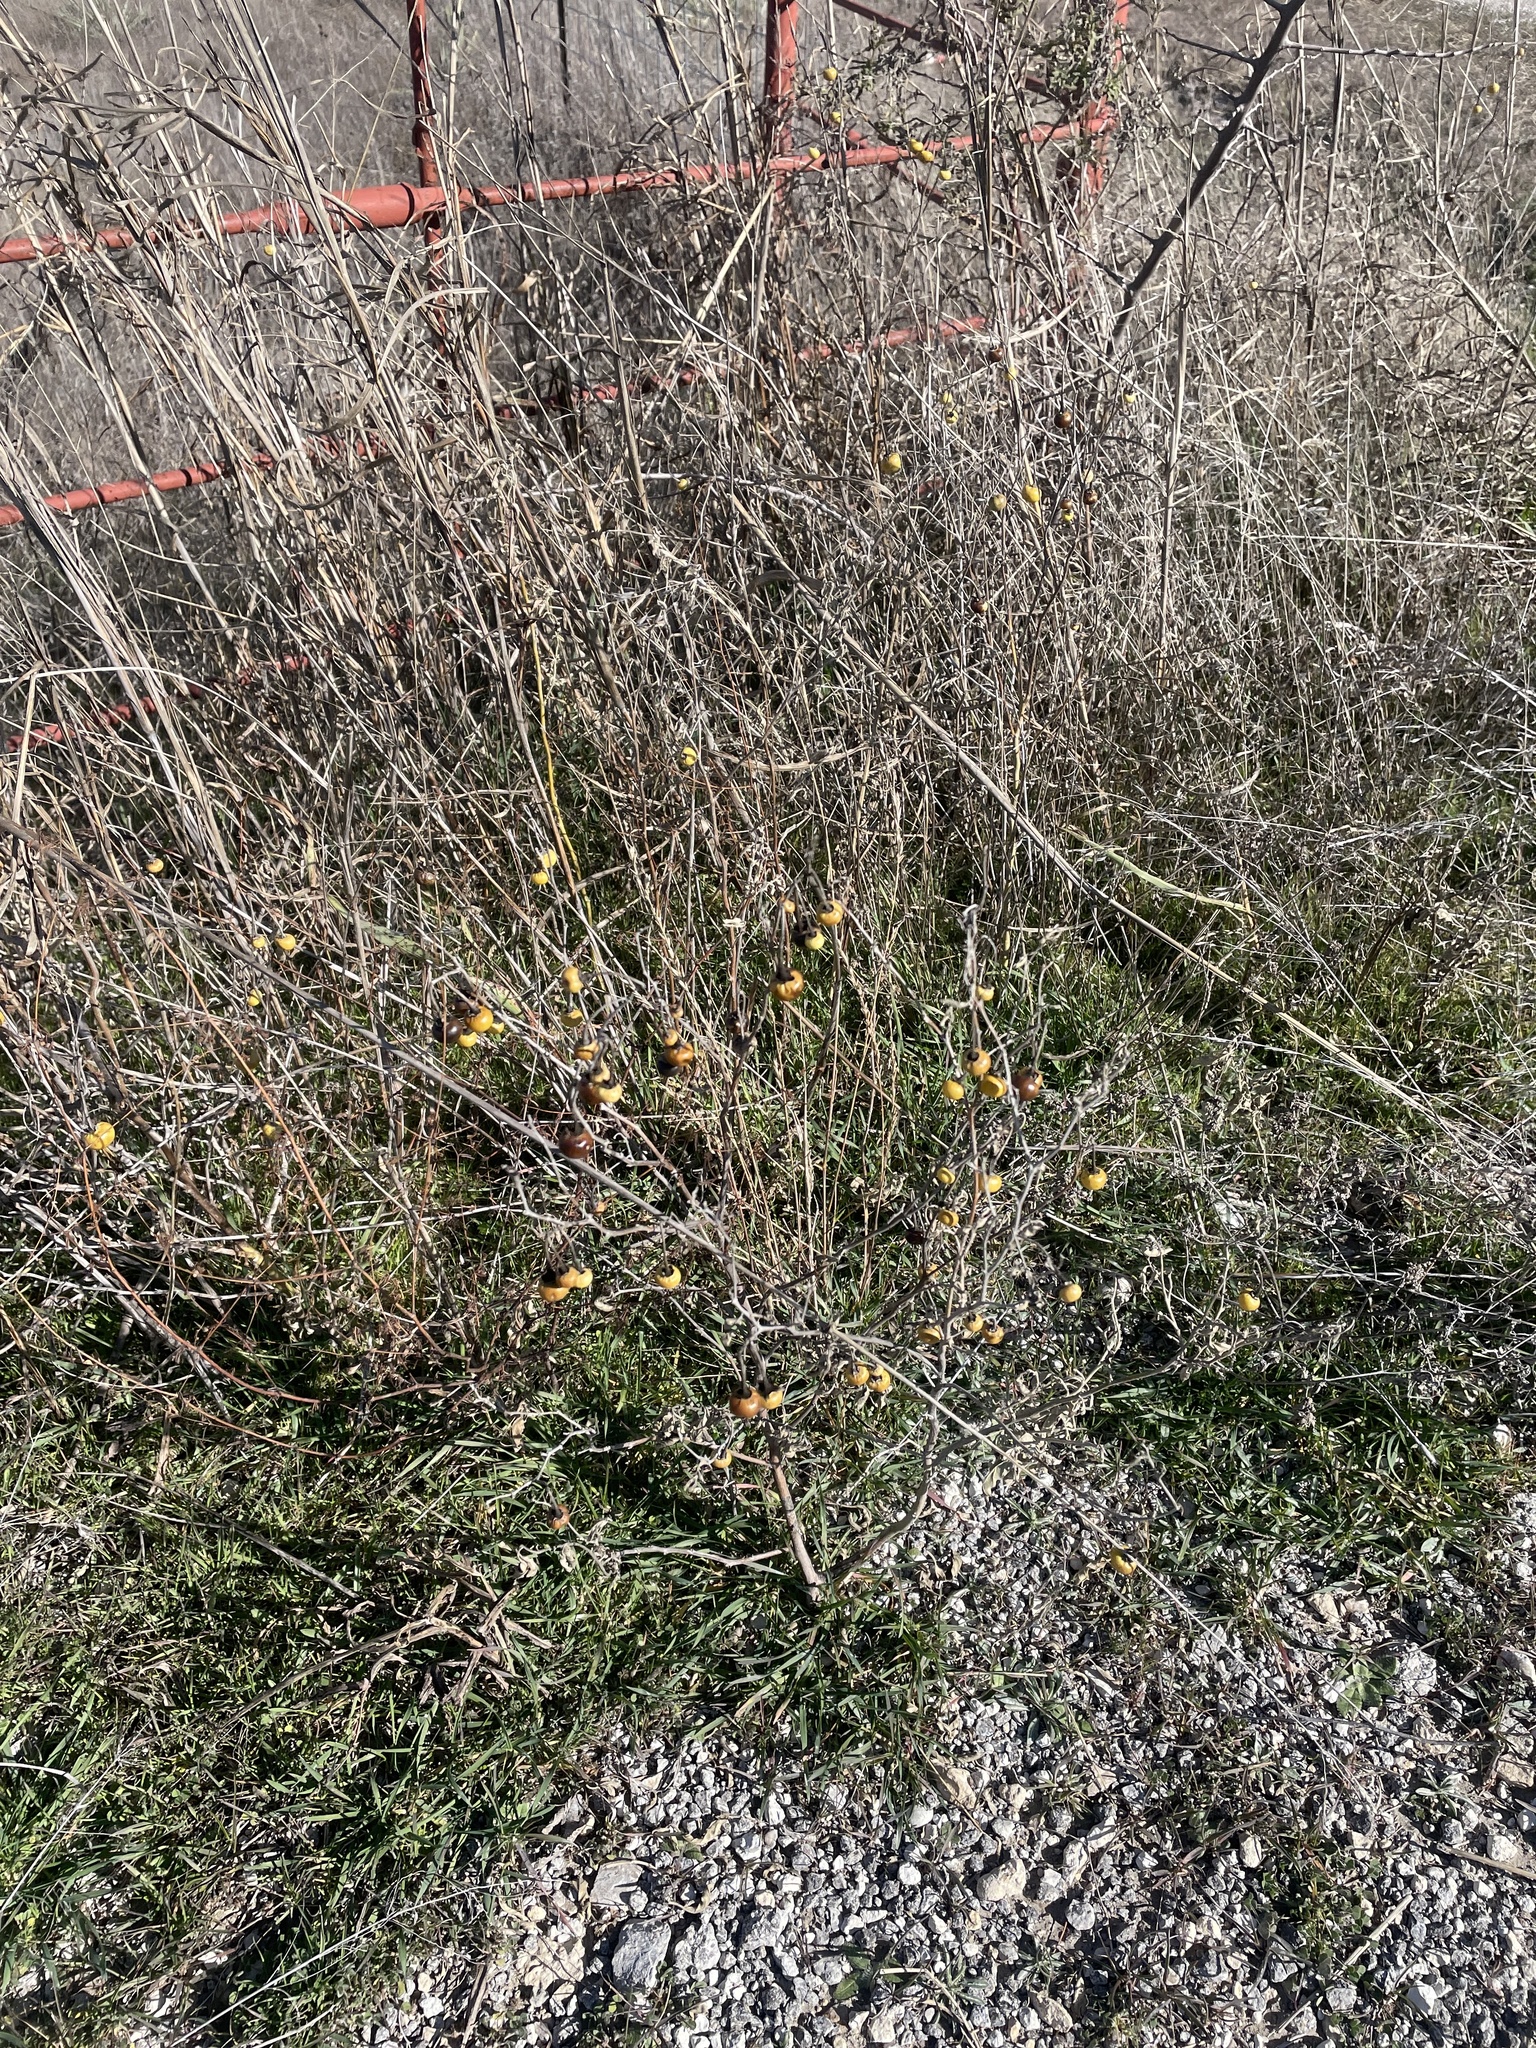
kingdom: Plantae
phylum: Tracheophyta
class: Magnoliopsida
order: Solanales
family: Solanaceae
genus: Solanum
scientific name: Solanum elaeagnifolium
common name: Silverleaf nightshade
